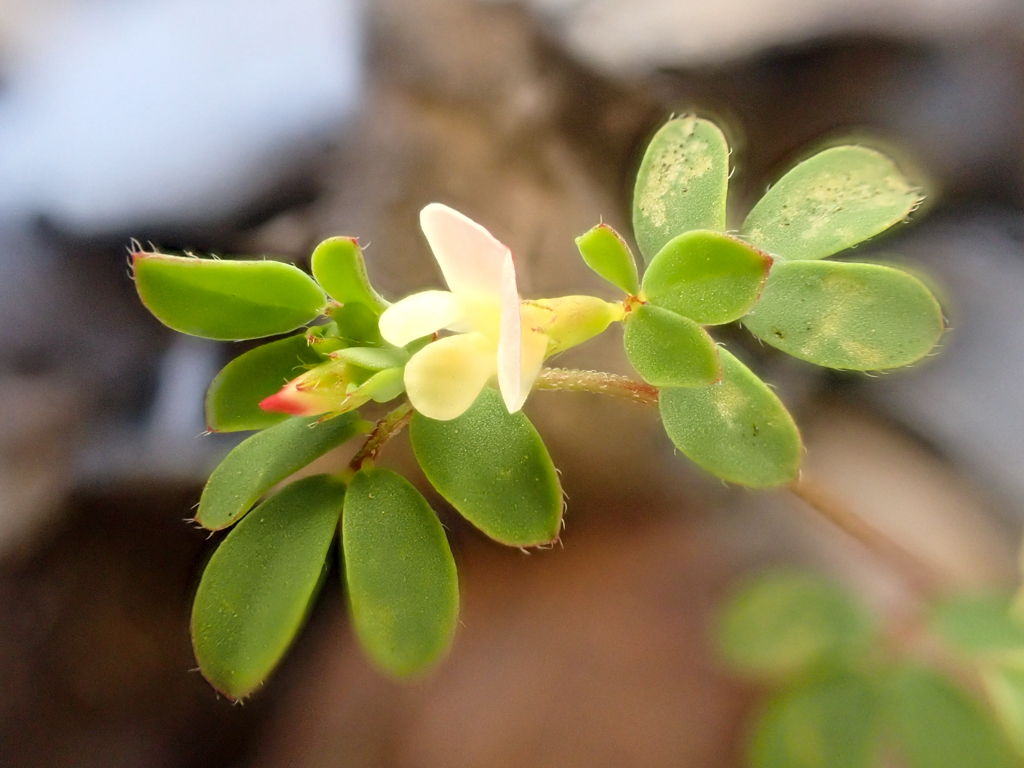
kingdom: Plantae
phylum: Tracheophyta
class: Magnoliopsida
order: Fabales
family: Fabaceae
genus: Acmispon
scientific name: Acmispon parviflorus
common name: Desert deer-vetch
